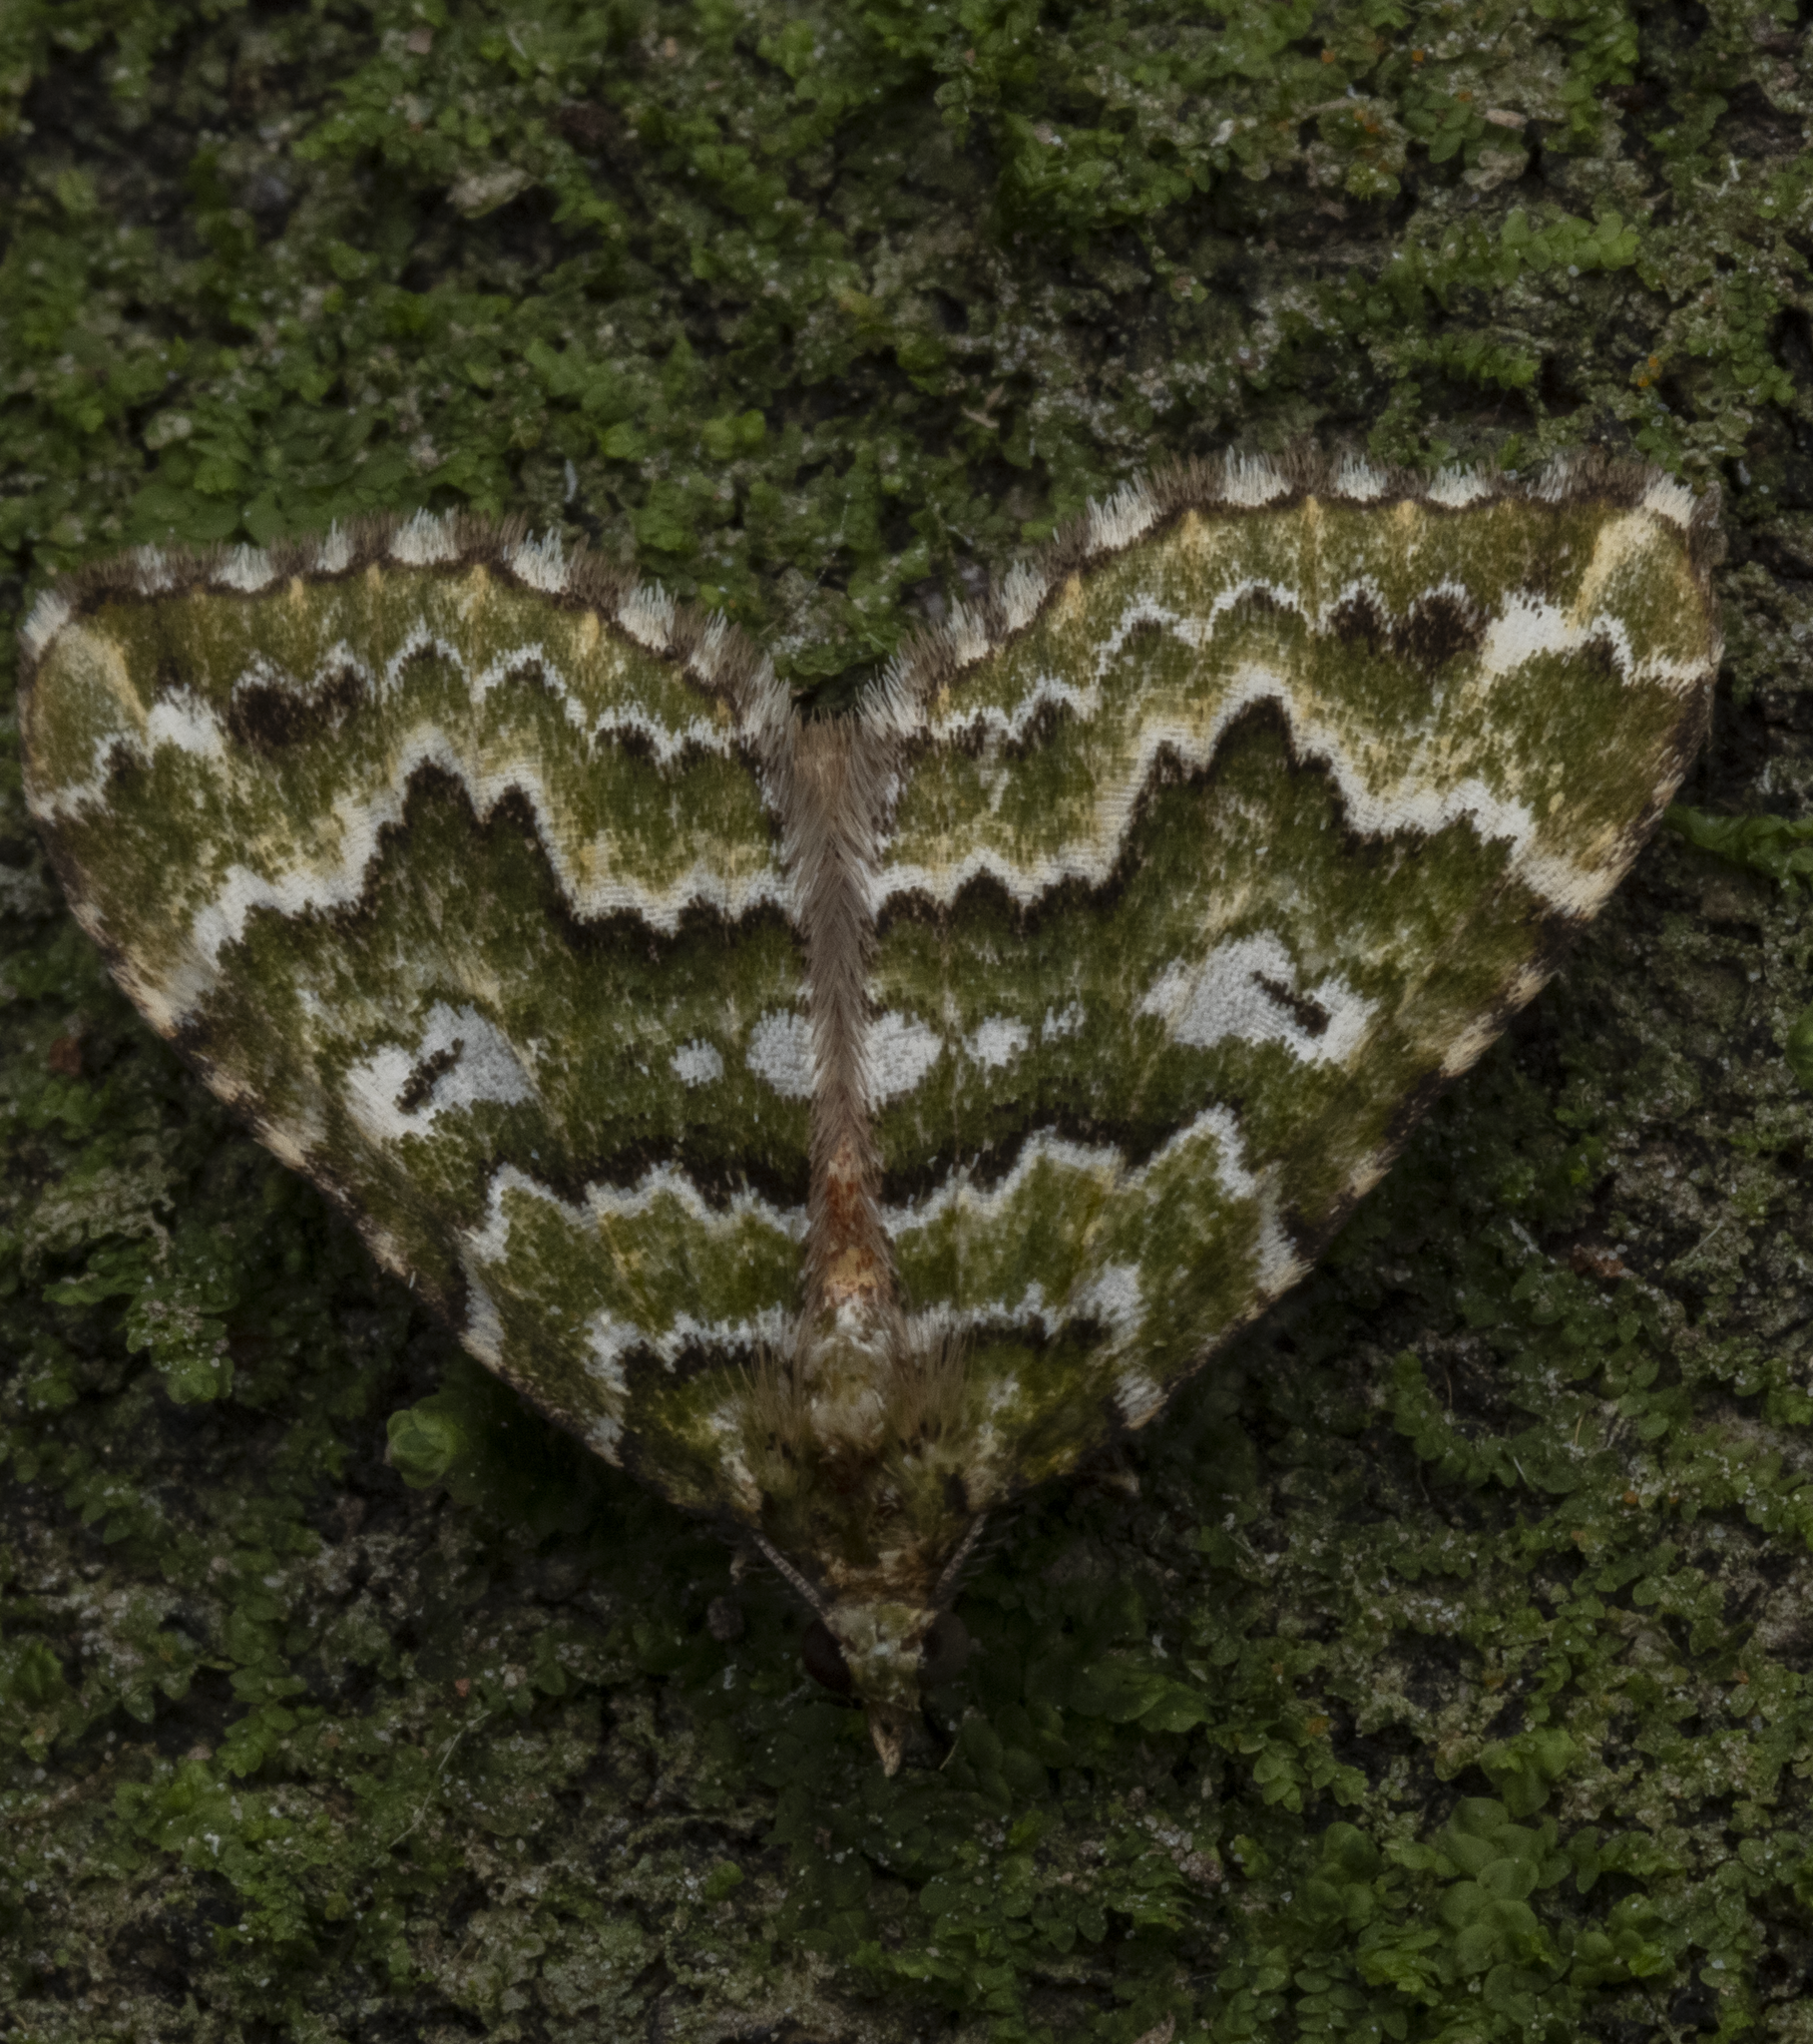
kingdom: Animalia
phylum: Arthropoda
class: Insecta
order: Lepidoptera
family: Geometridae
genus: Asaphodes
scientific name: Asaphodes beata
